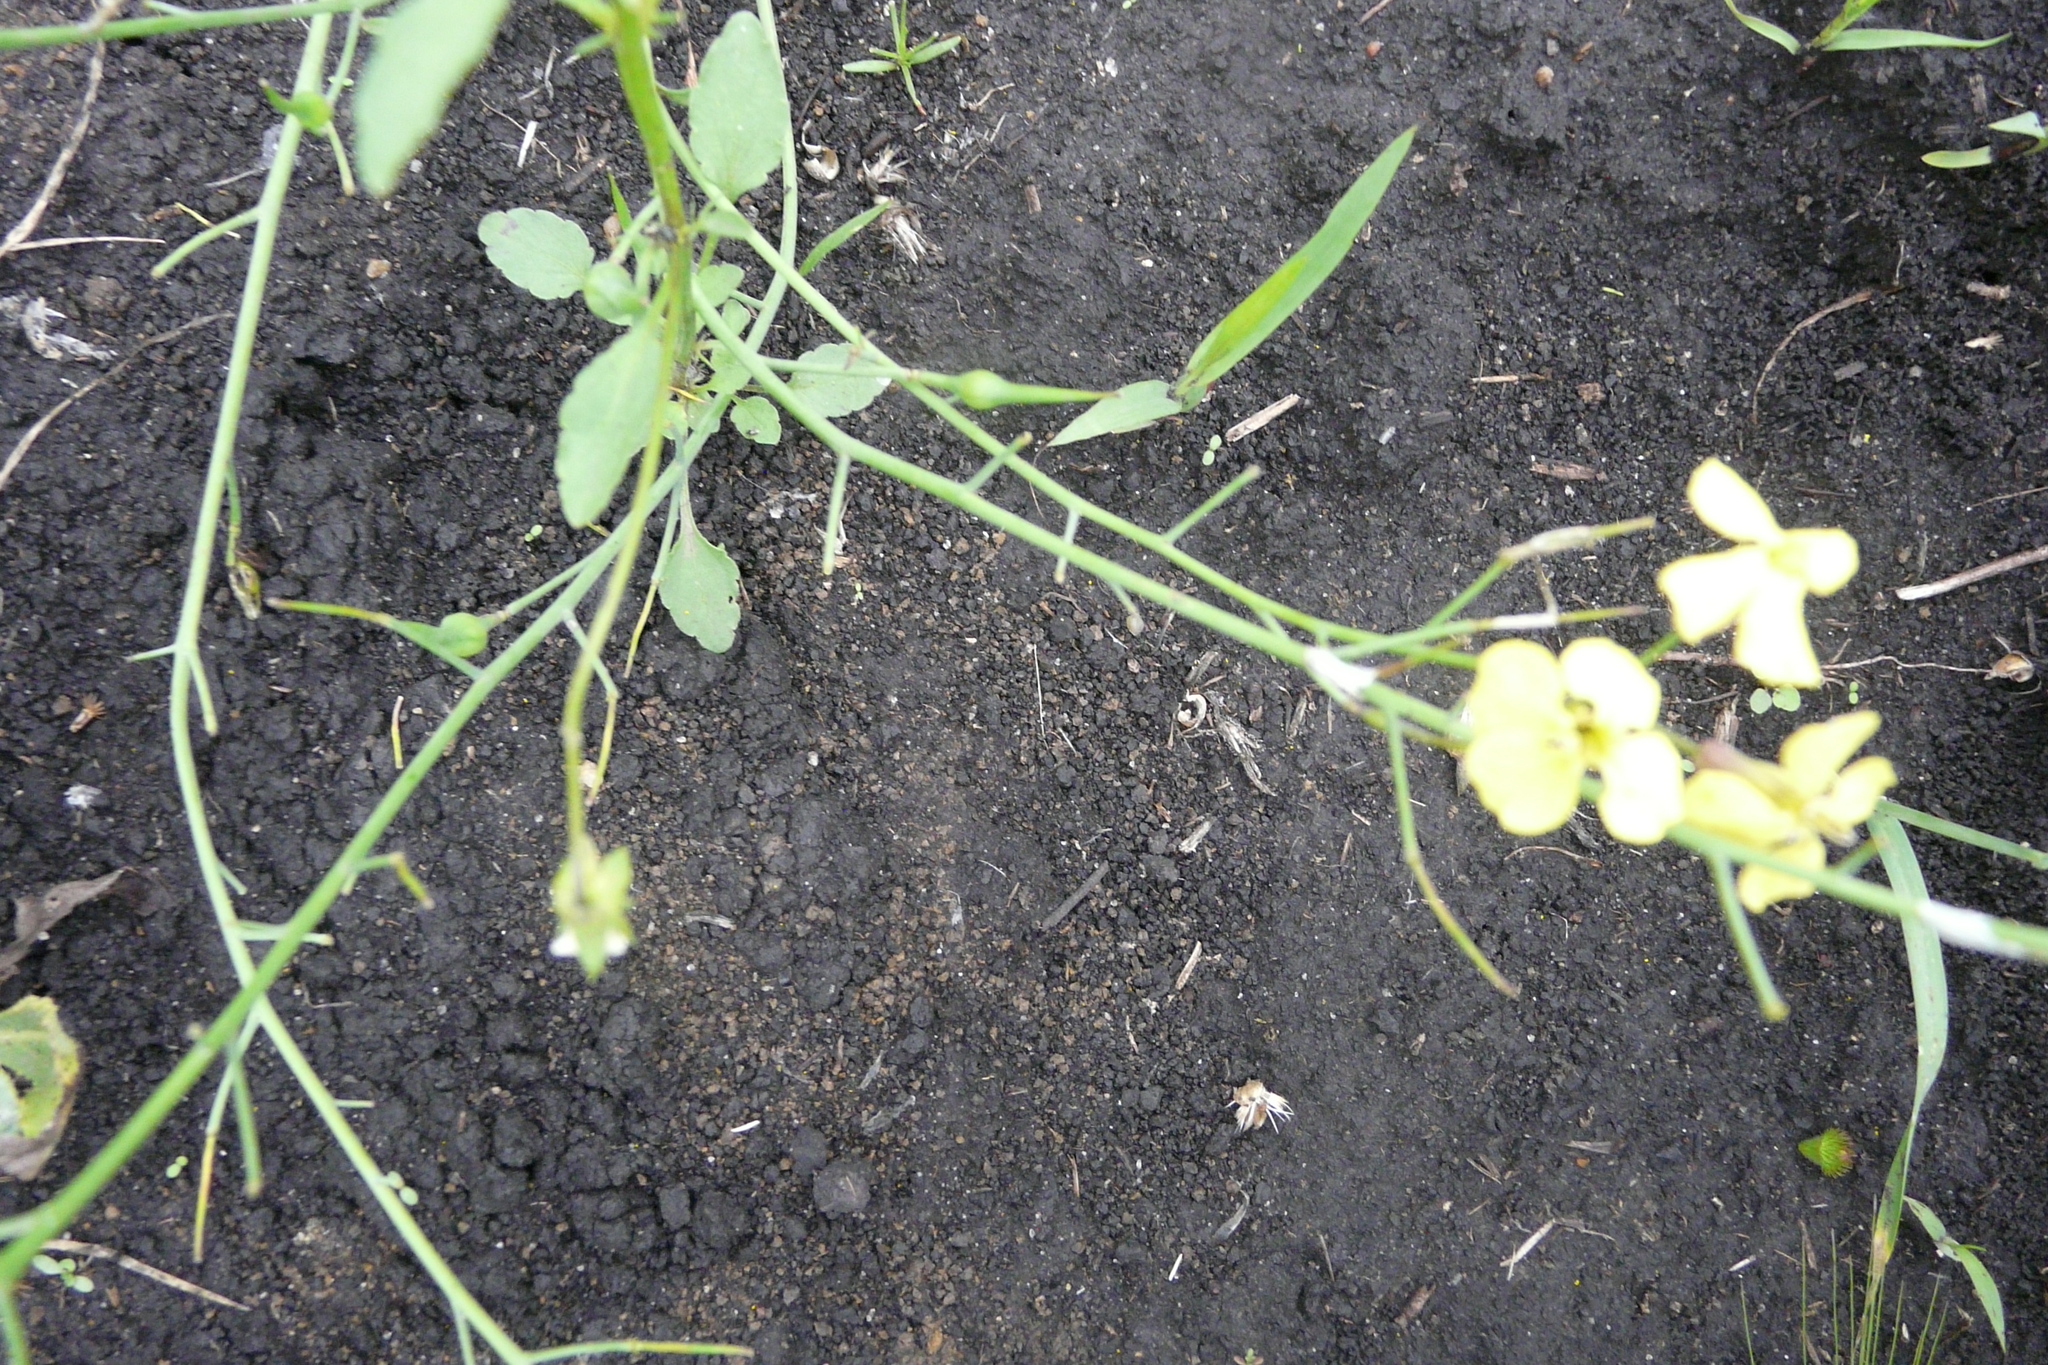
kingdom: Plantae
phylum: Tracheophyta
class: Magnoliopsida
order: Brassicales
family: Brassicaceae
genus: Raphanus
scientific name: Raphanus raphanistrum
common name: Wild radish
